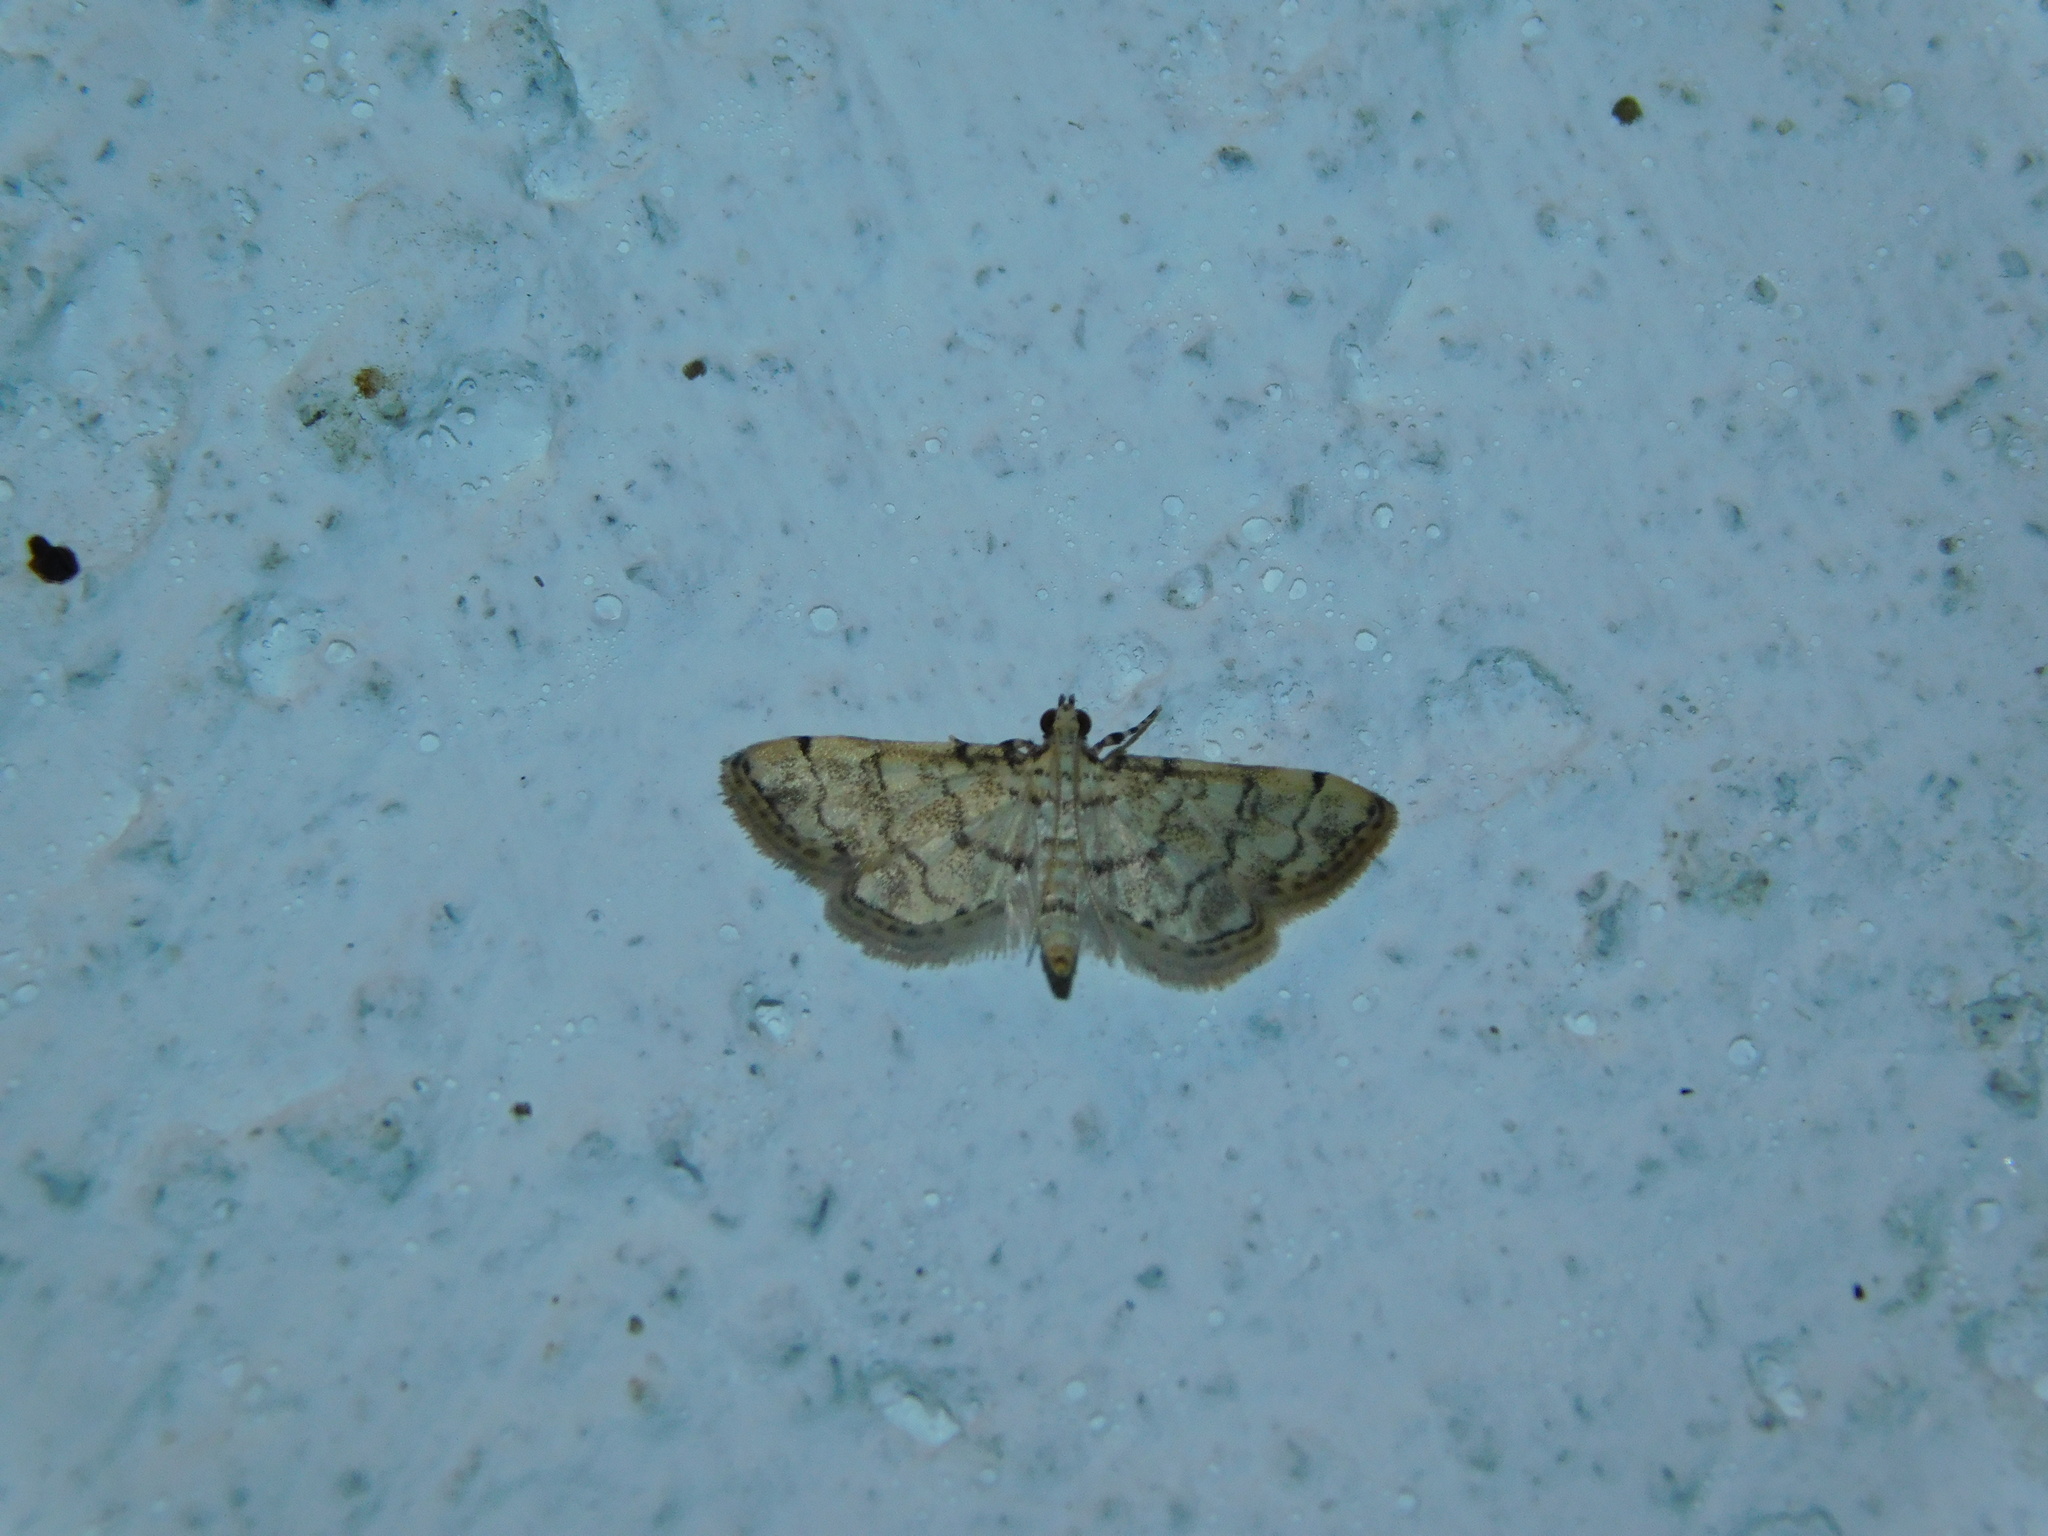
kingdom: Animalia
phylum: Arthropoda
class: Insecta
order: Lepidoptera
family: Crambidae
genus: Lamprosema
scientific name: Lamprosema tampiusalis
